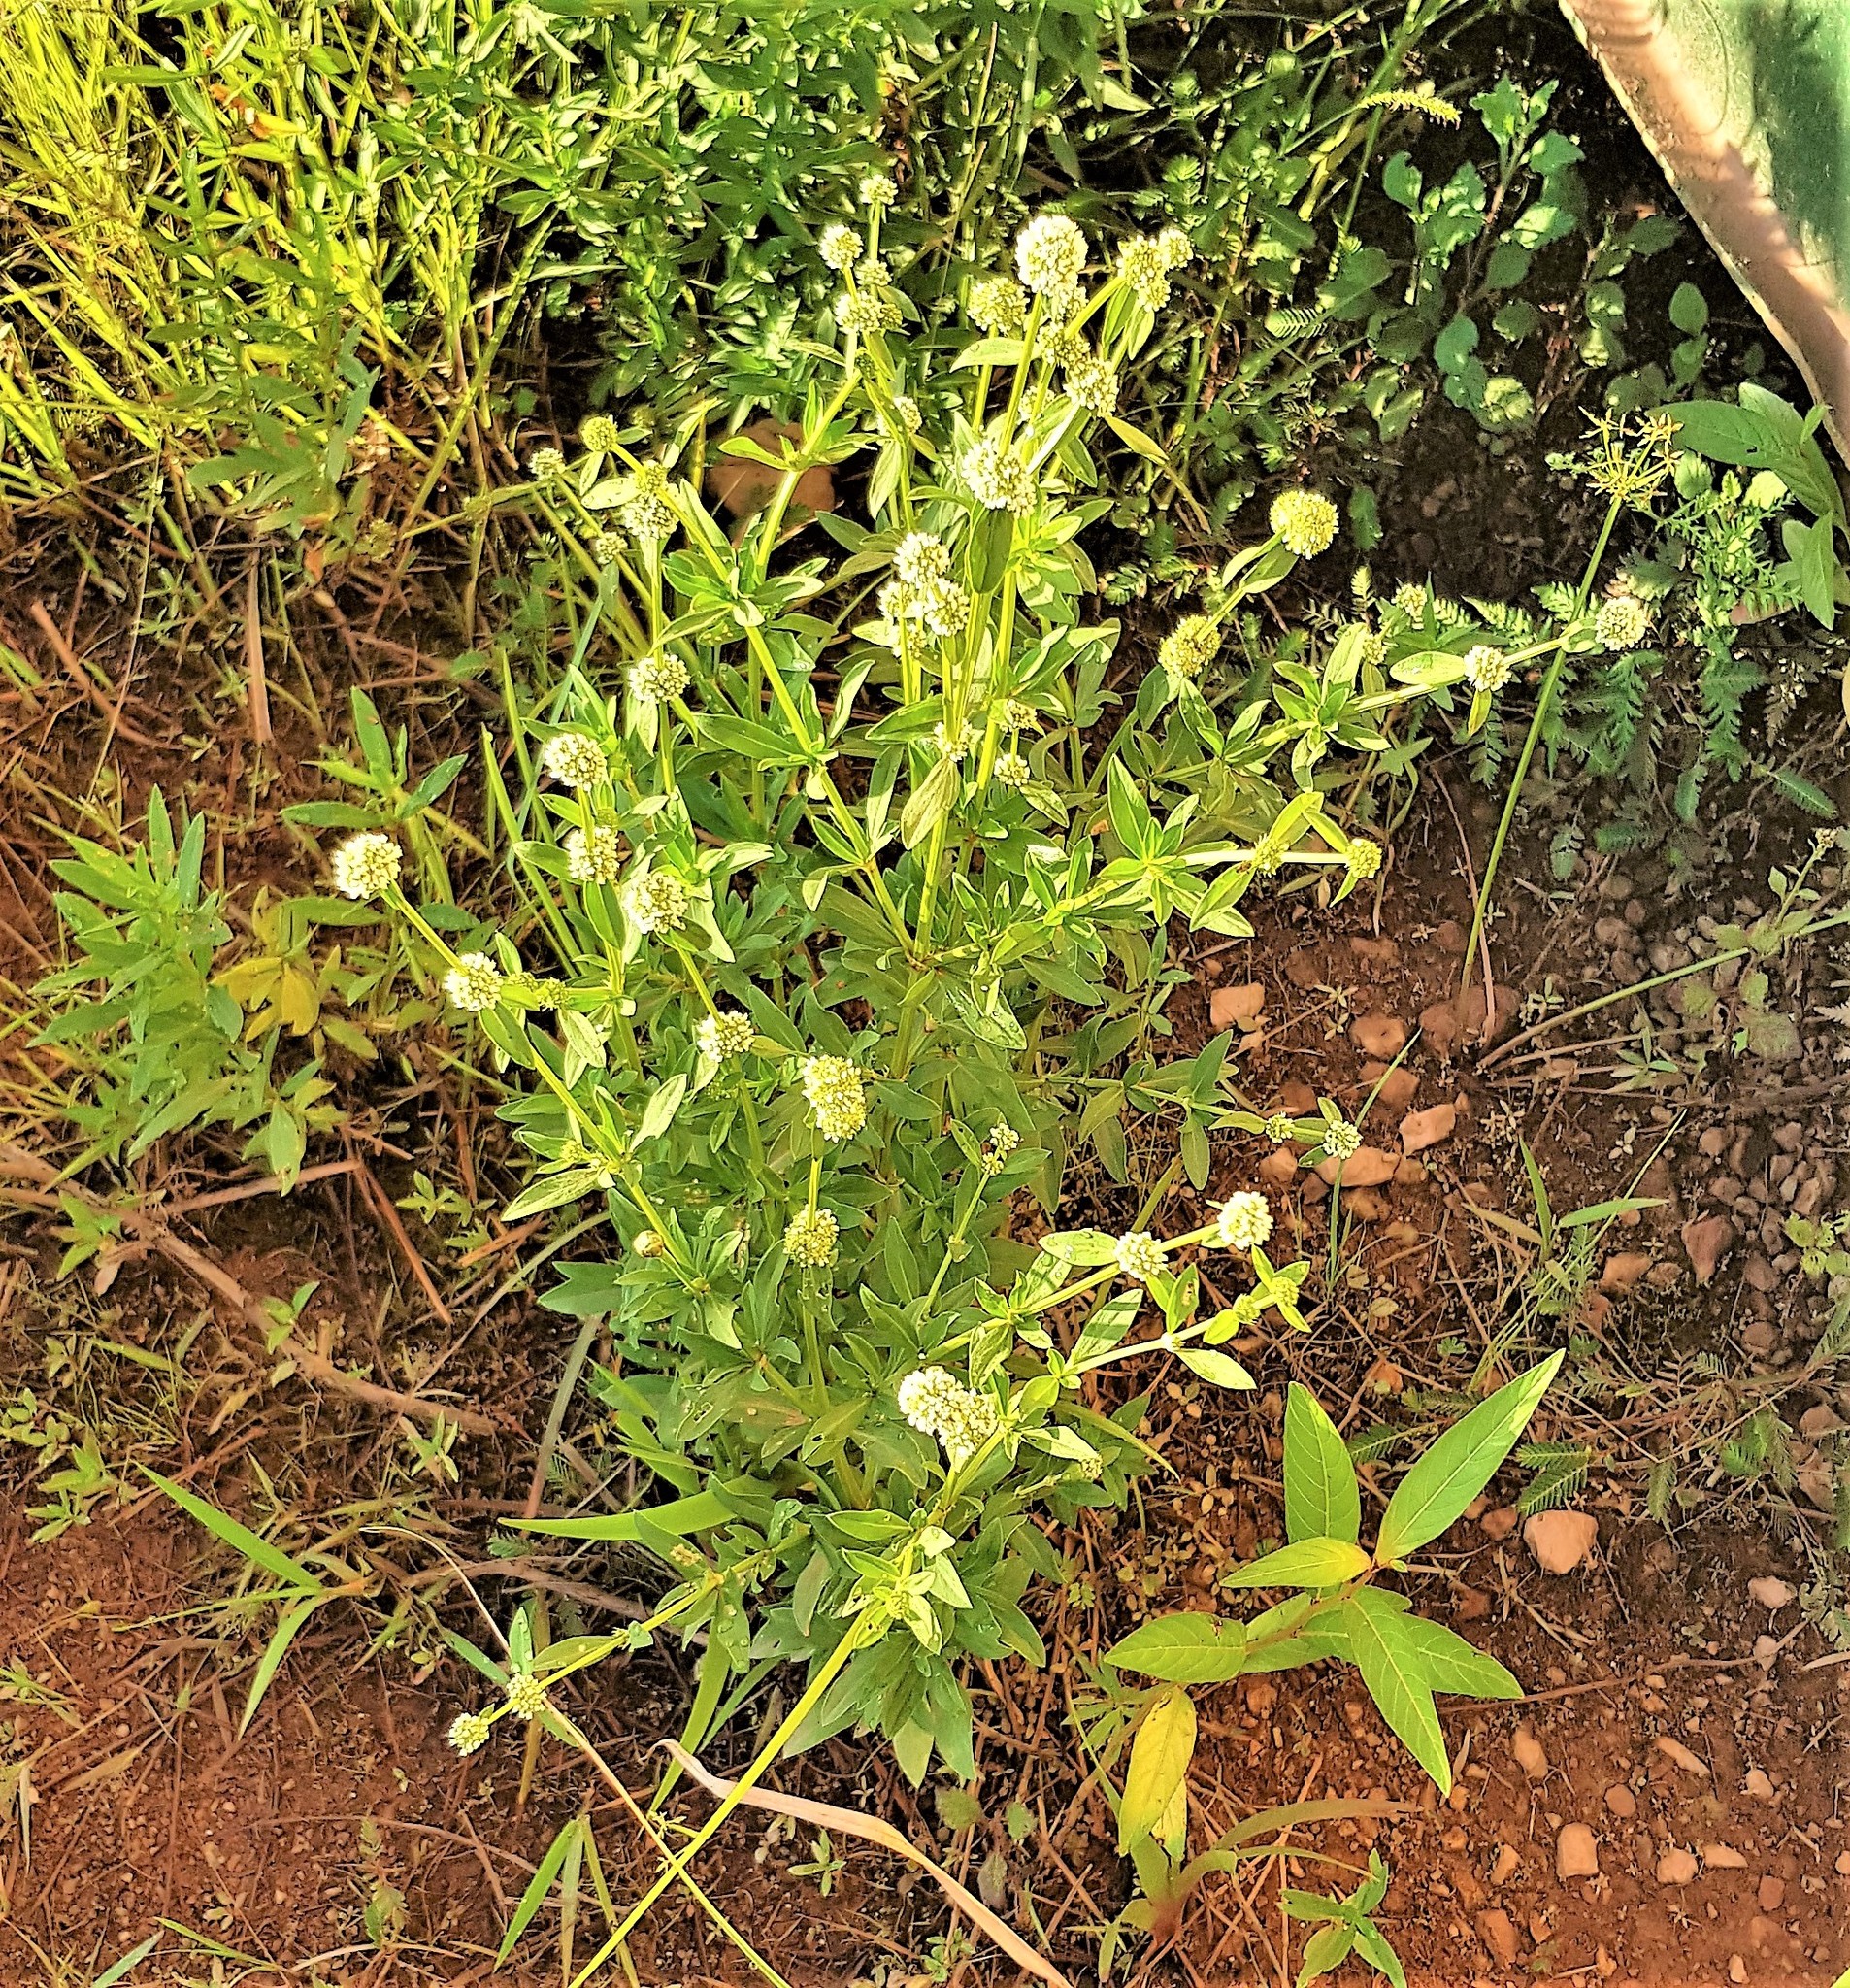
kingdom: Plantae
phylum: Tracheophyta
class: Magnoliopsida
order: Gentianales
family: Rubiaceae
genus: Spermacoce
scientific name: Spermacoce verticillata
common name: Shrubby false buttonweed
